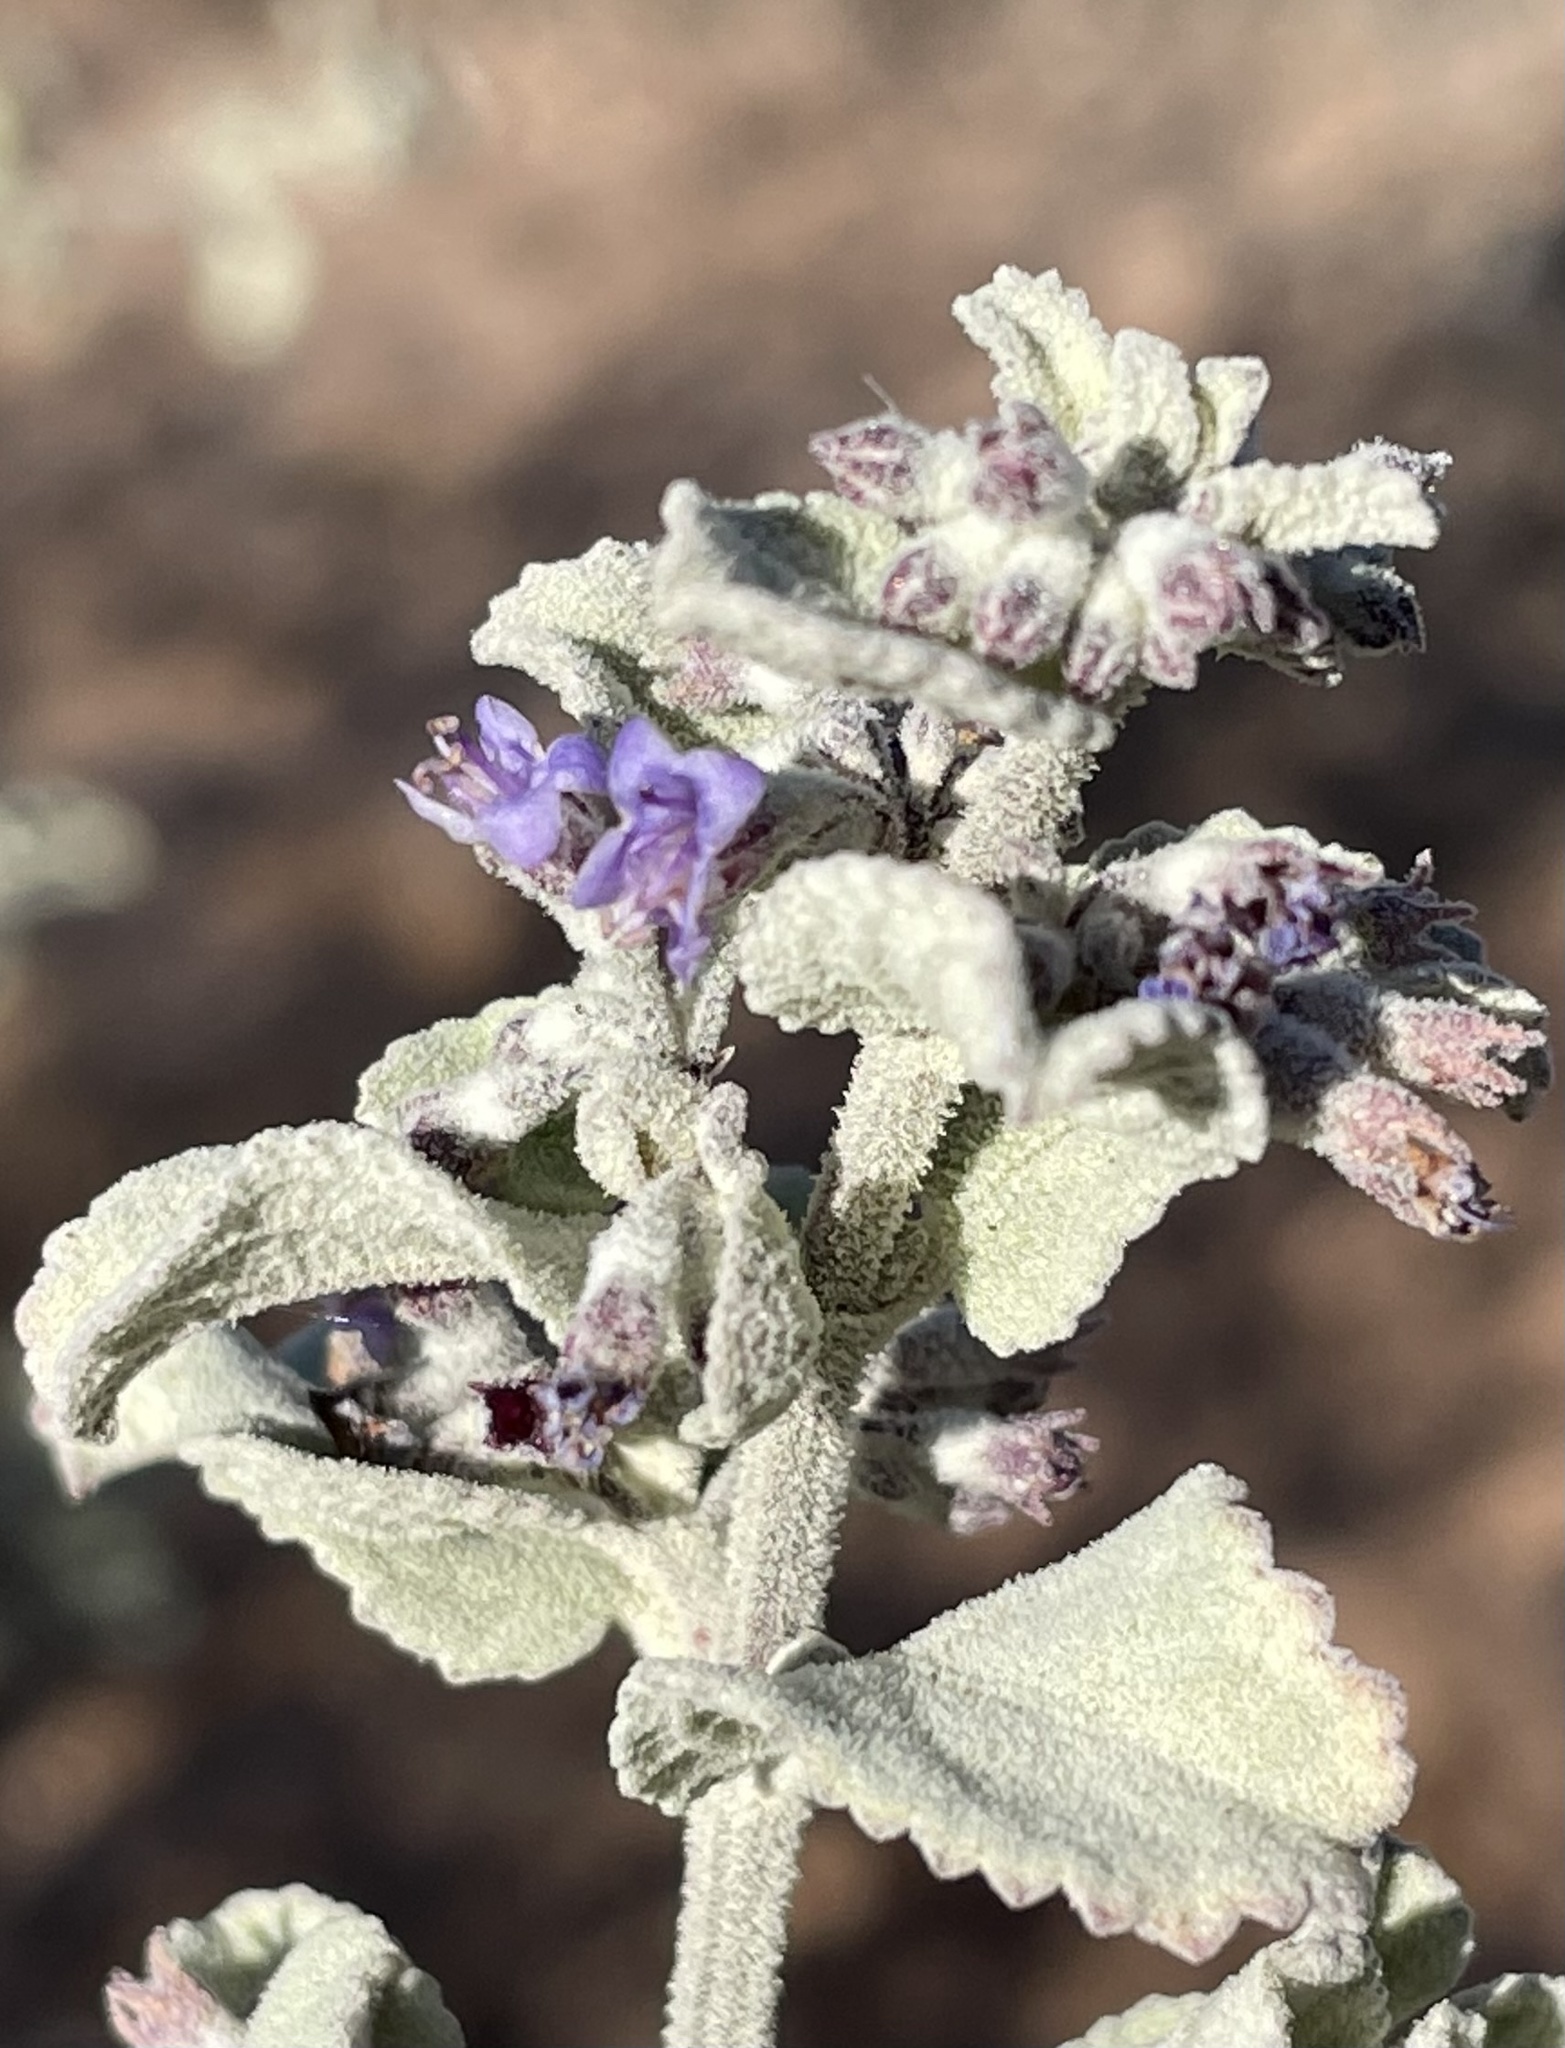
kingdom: Plantae
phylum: Tracheophyta
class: Magnoliopsida
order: Lamiales
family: Lamiaceae
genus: Condea
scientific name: Condea emoryi
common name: Chia
